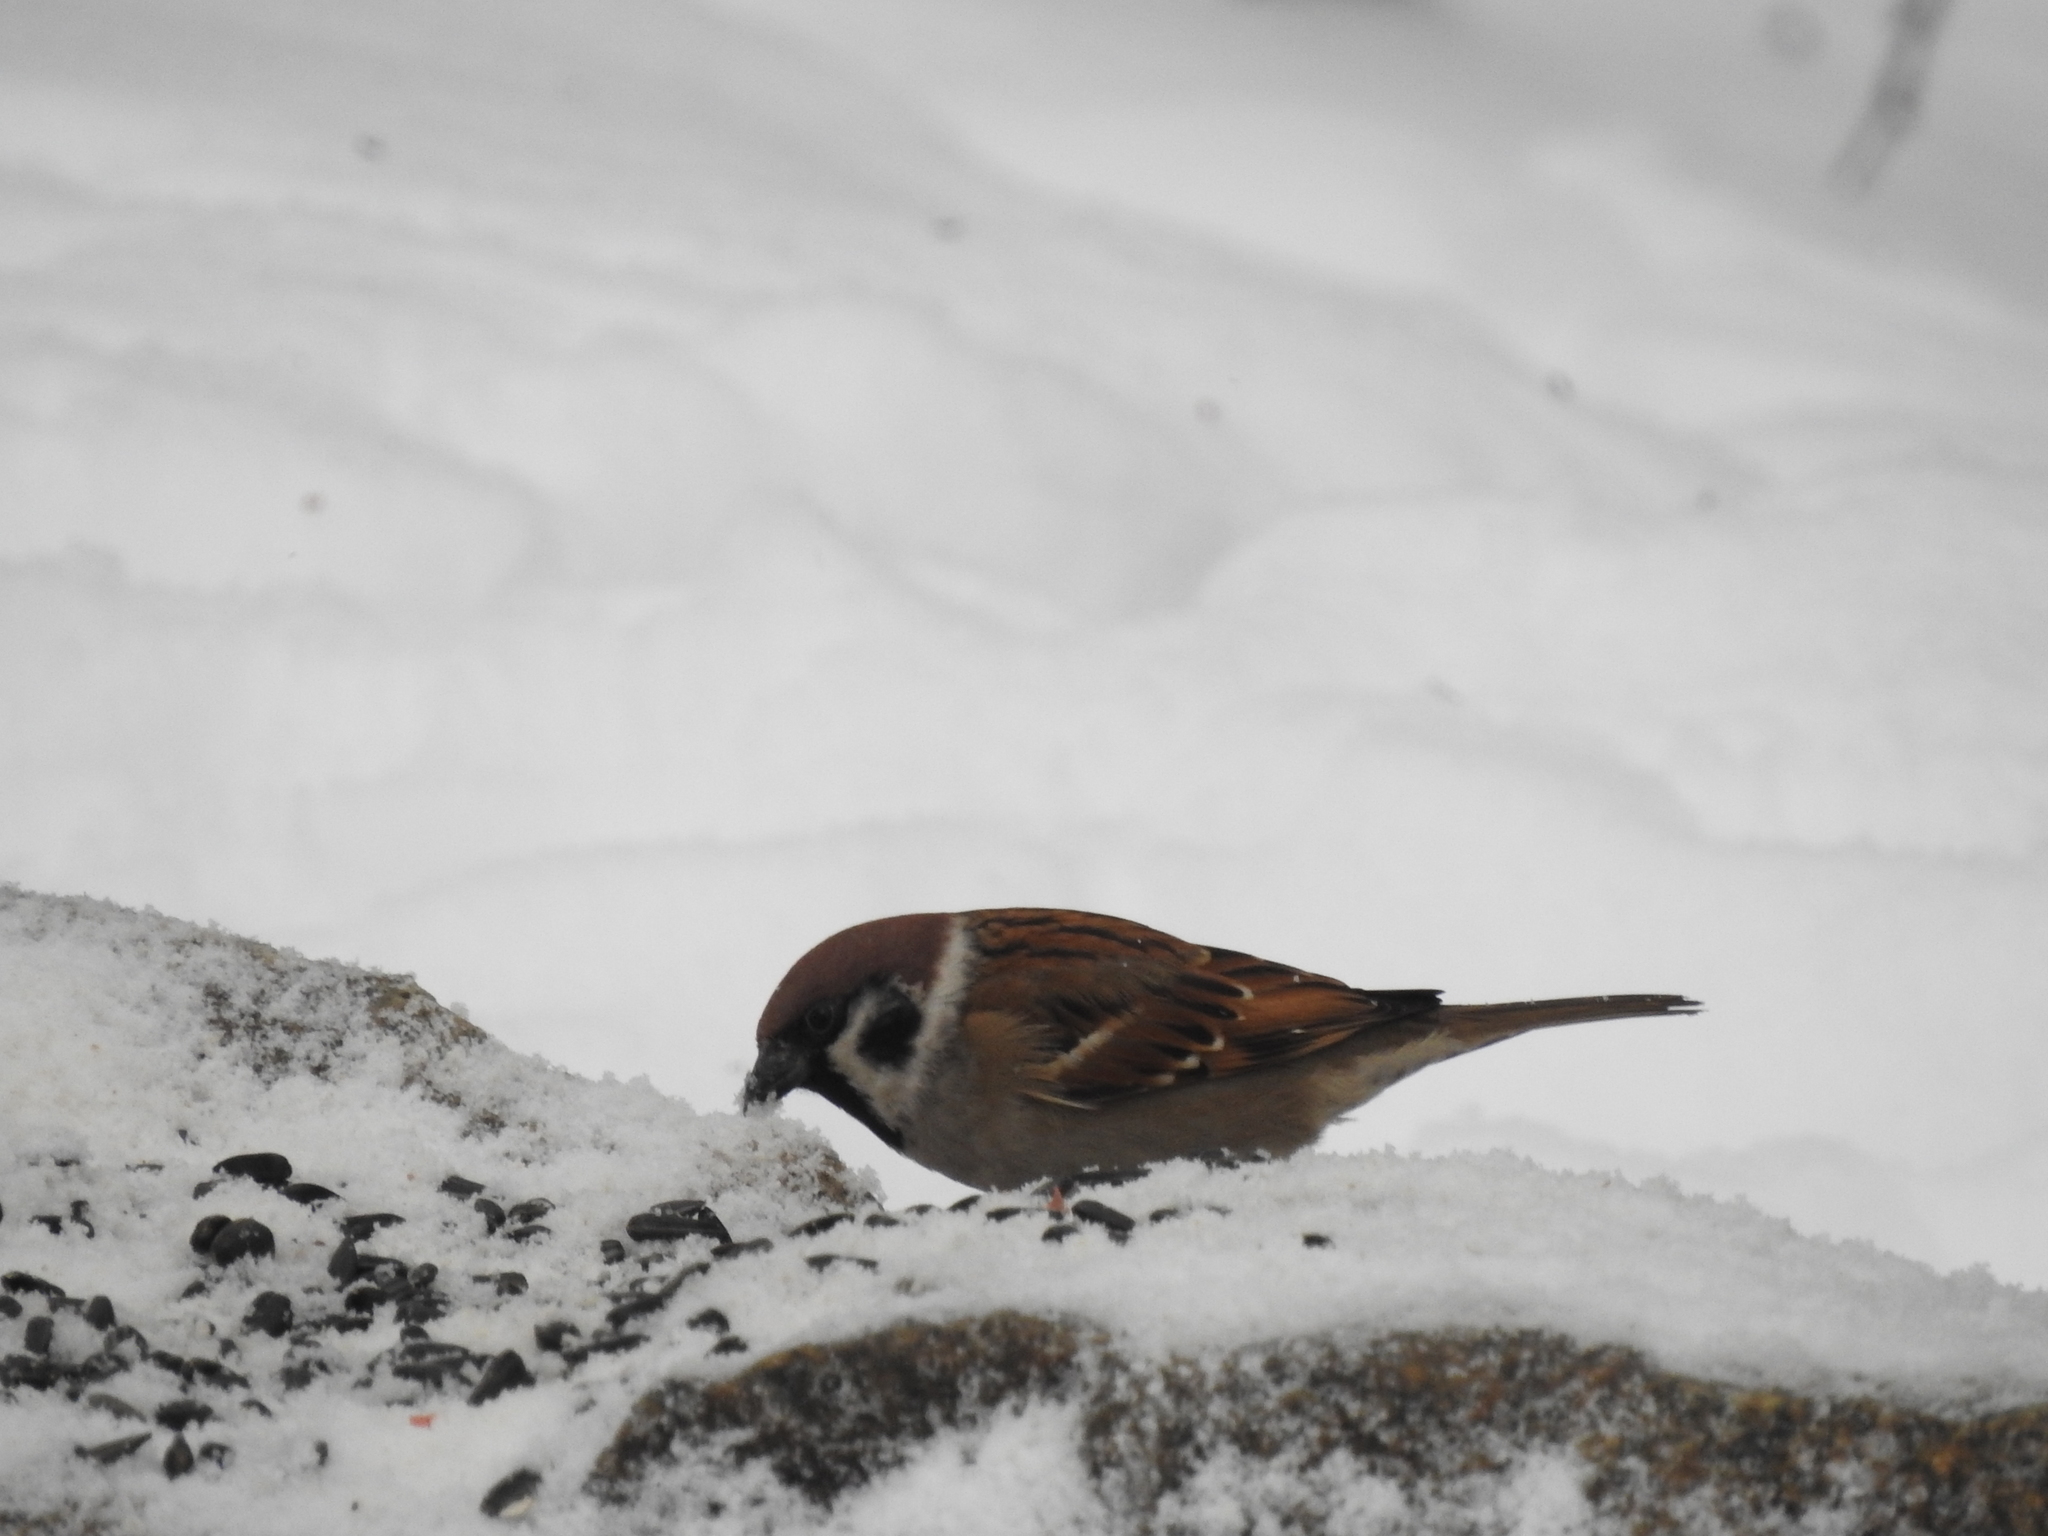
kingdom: Animalia
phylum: Chordata
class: Aves
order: Passeriformes
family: Passeridae
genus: Passer
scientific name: Passer montanus
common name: Eurasian tree sparrow
